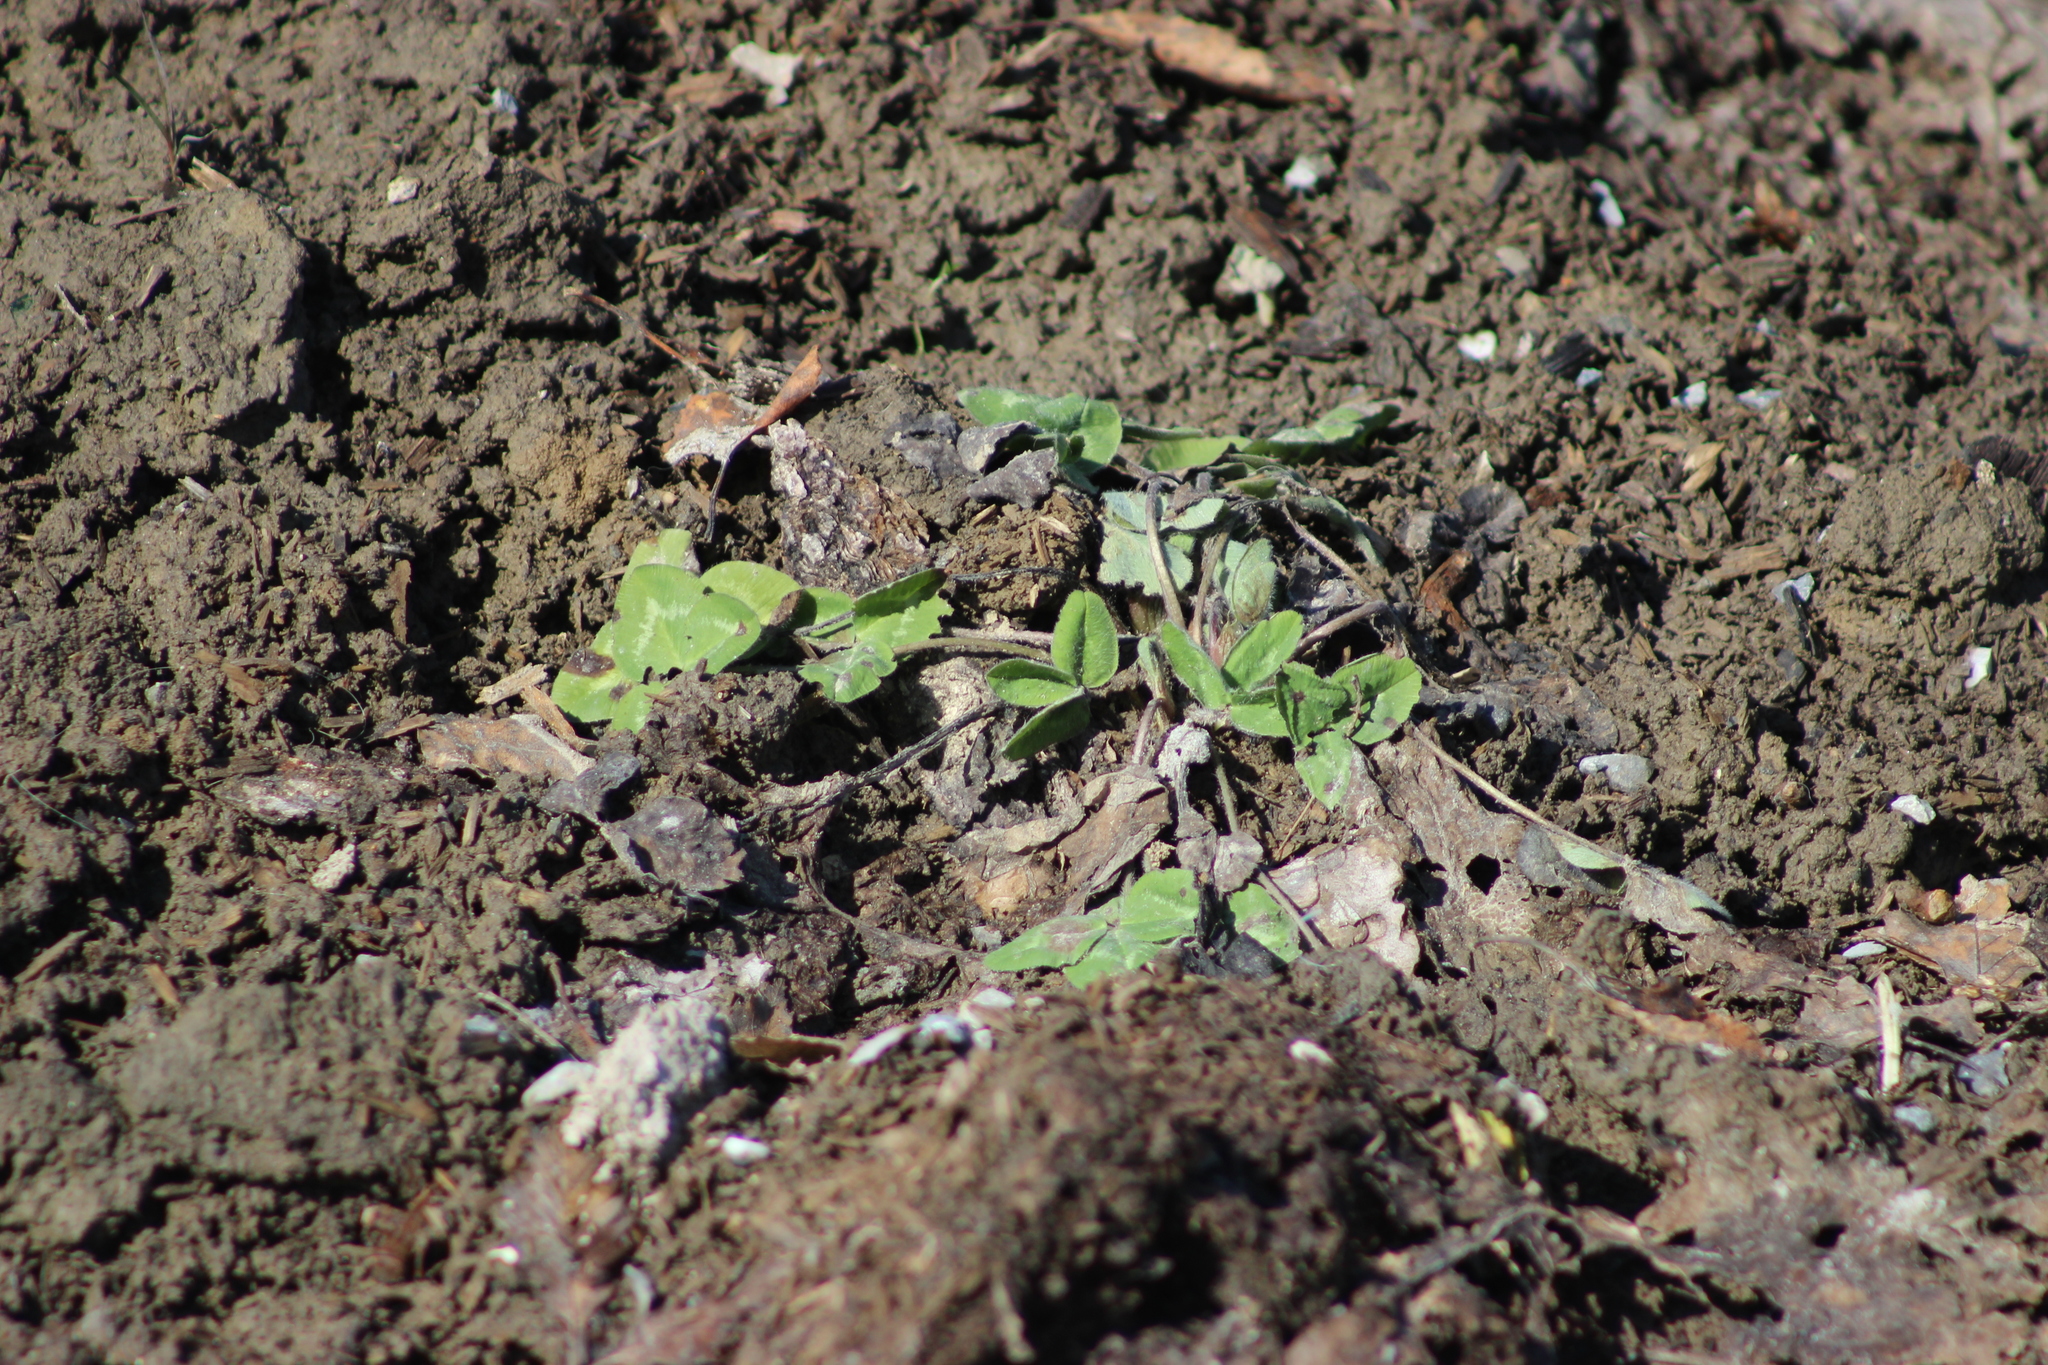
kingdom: Plantae
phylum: Tracheophyta
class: Magnoliopsida
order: Fabales
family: Fabaceae
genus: Trifolium
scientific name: Trifolium pratense
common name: Red clover
